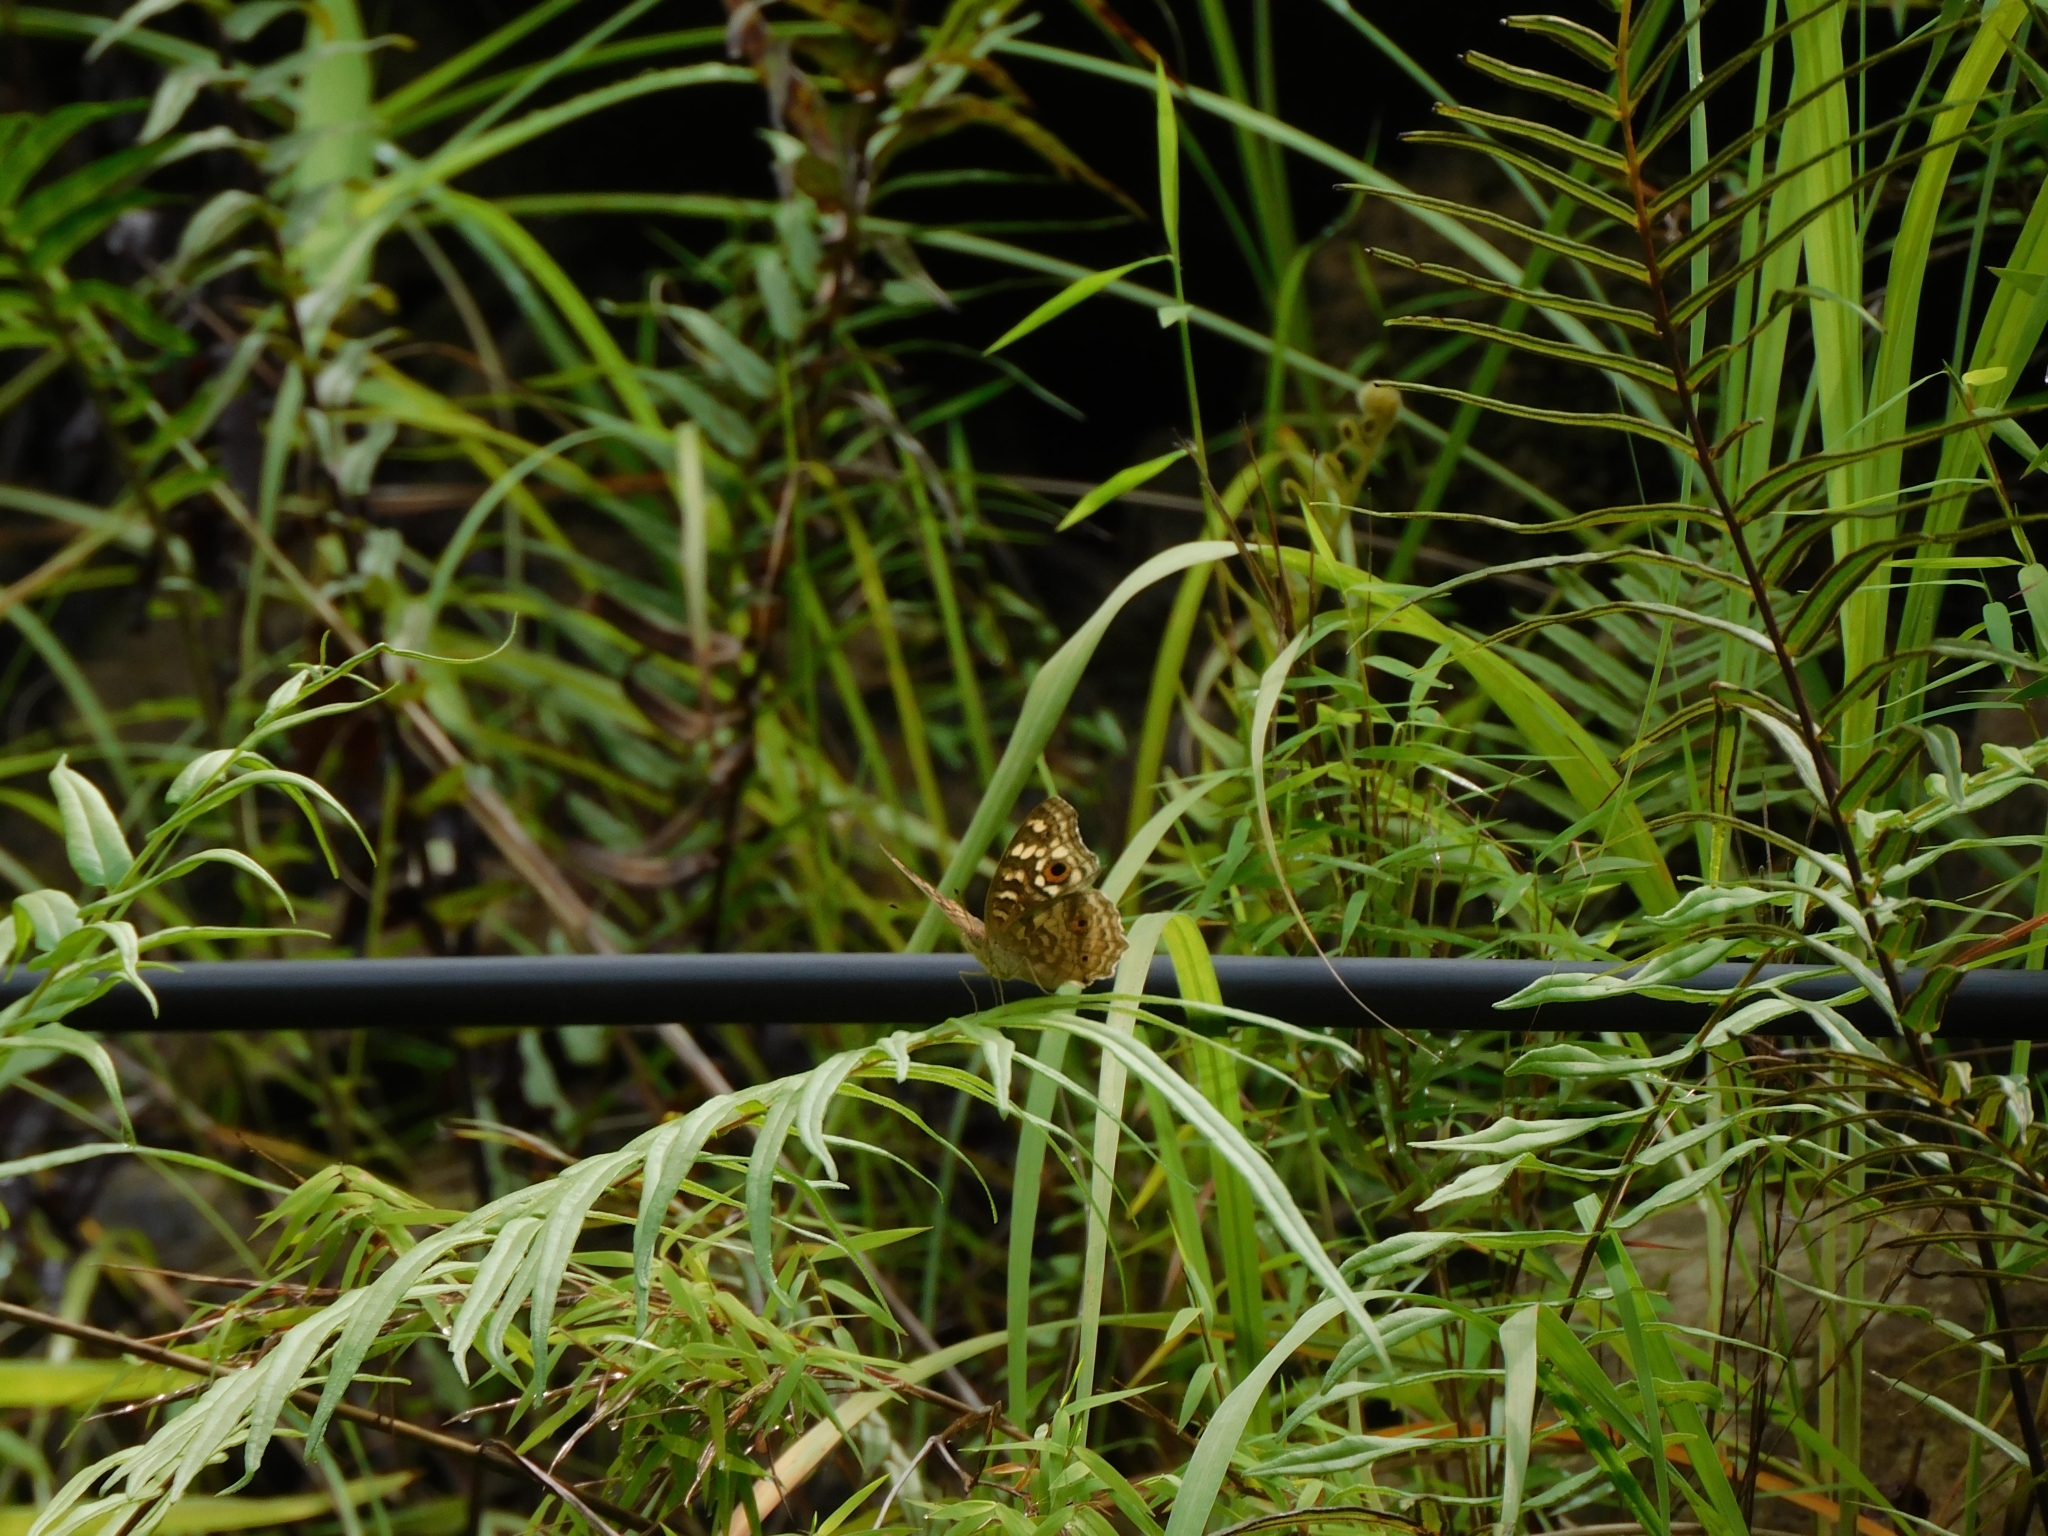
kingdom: Animalia
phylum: Arthropoda
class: Insecta
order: Lepidoptera
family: Nymphalidae
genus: Junonia
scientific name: Junonia lemonias
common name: Lemon pansy
